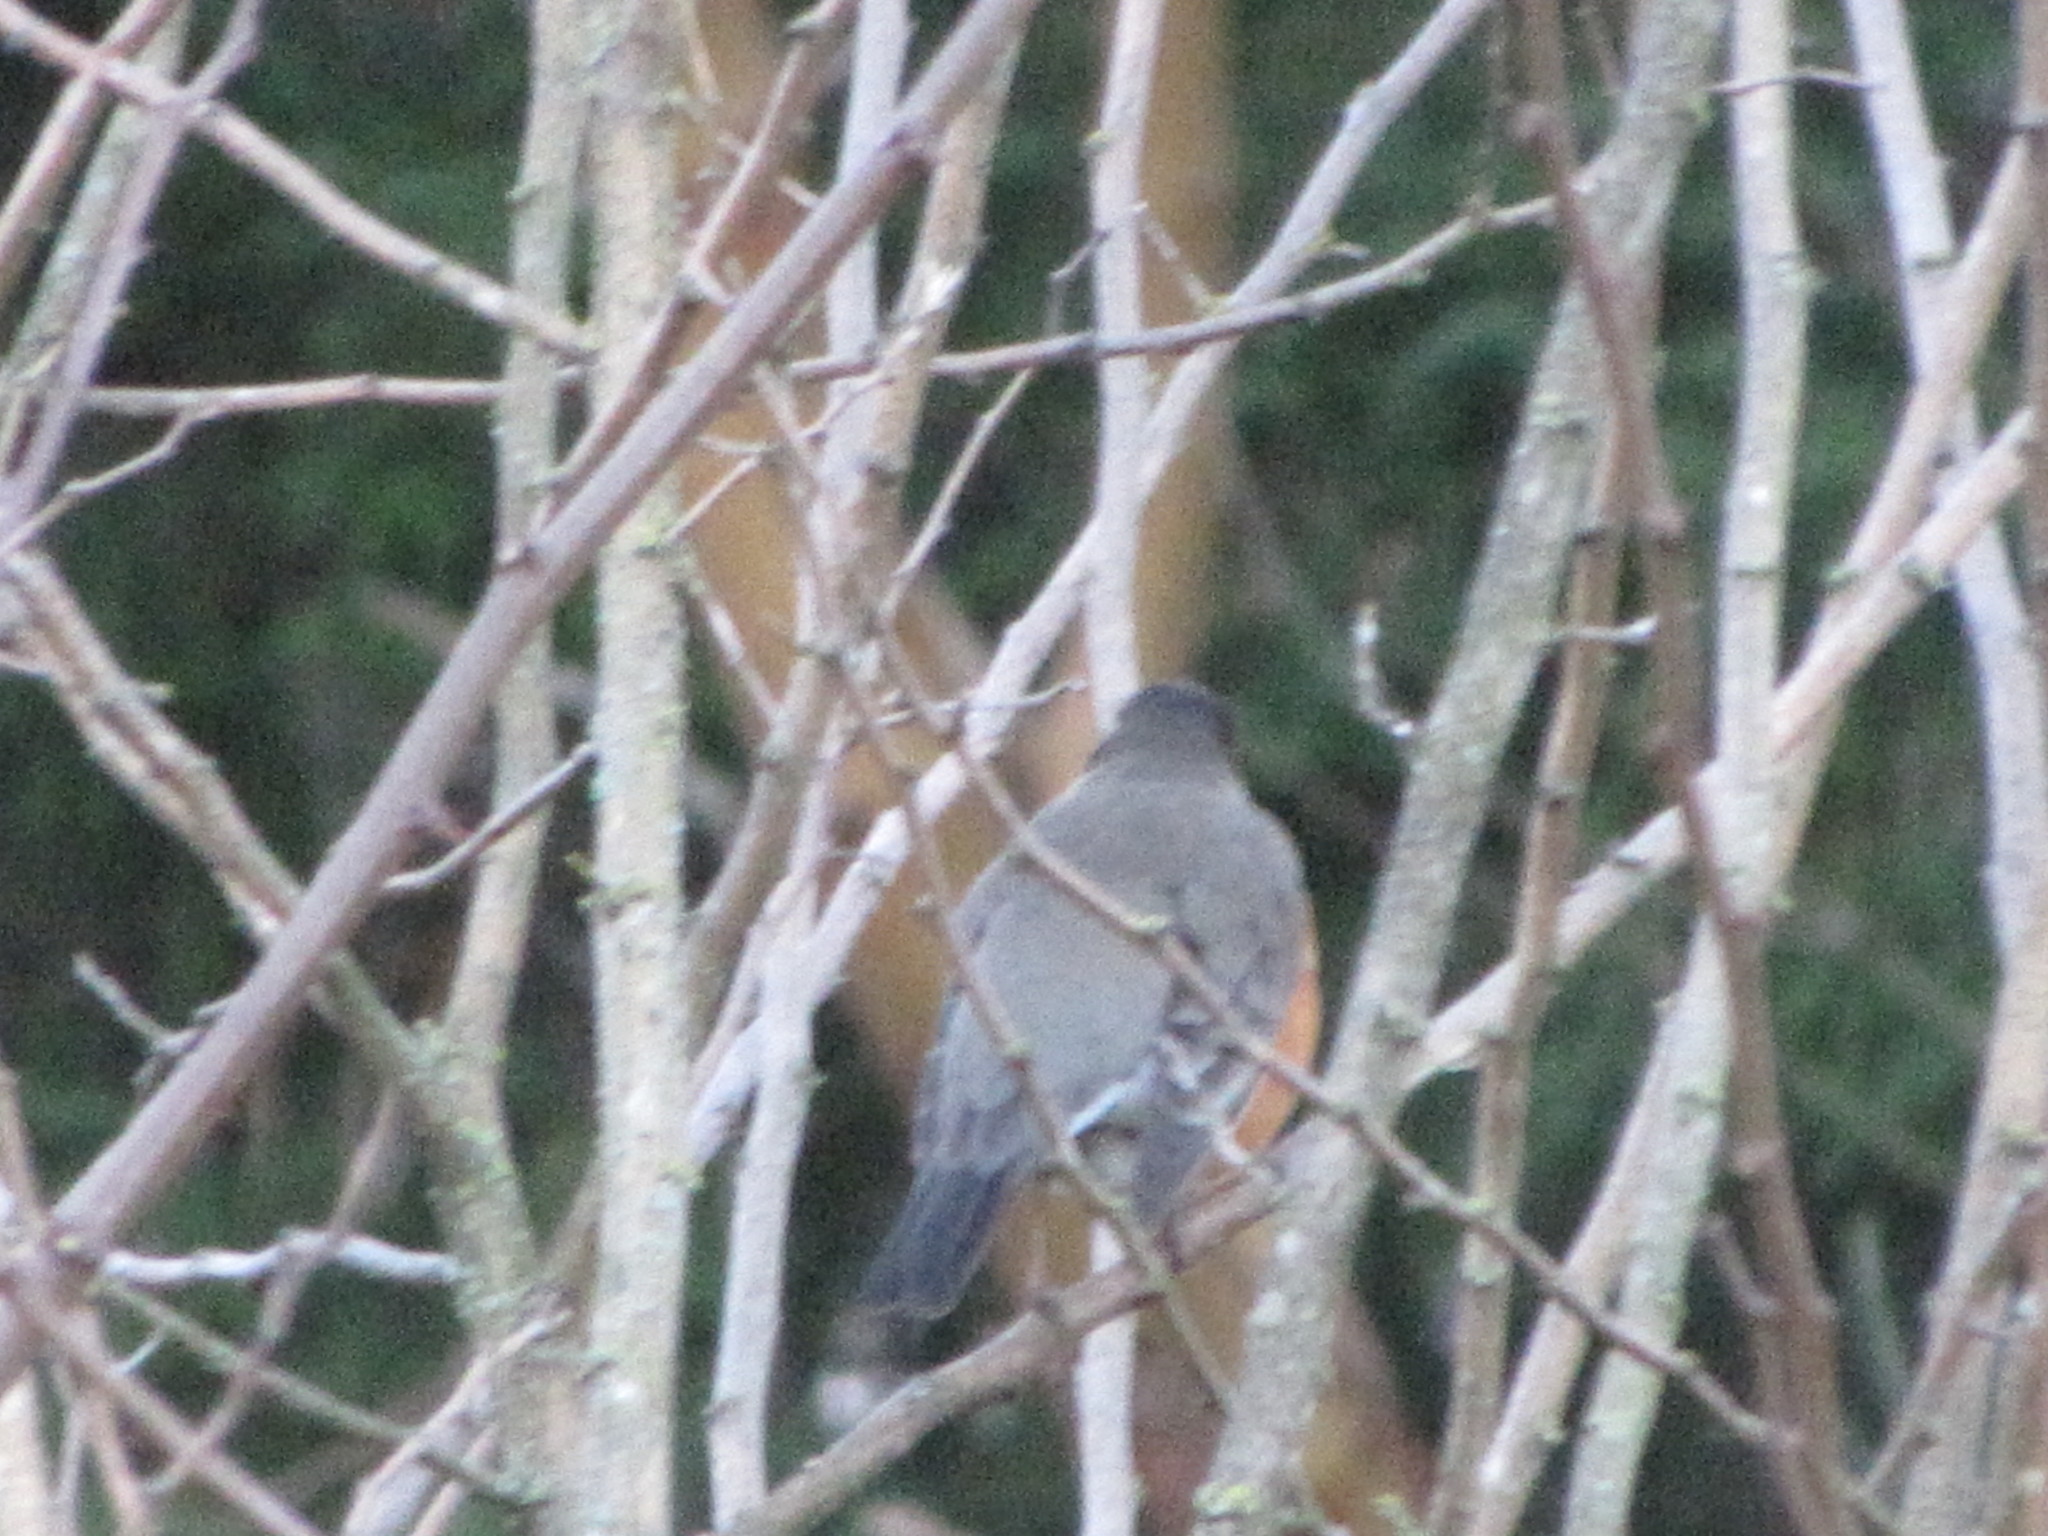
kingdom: Animalia
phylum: Chordata
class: Aves
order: Passeriformes
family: Turdidae
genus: Turdus
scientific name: Turdus migratorius
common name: American robin
